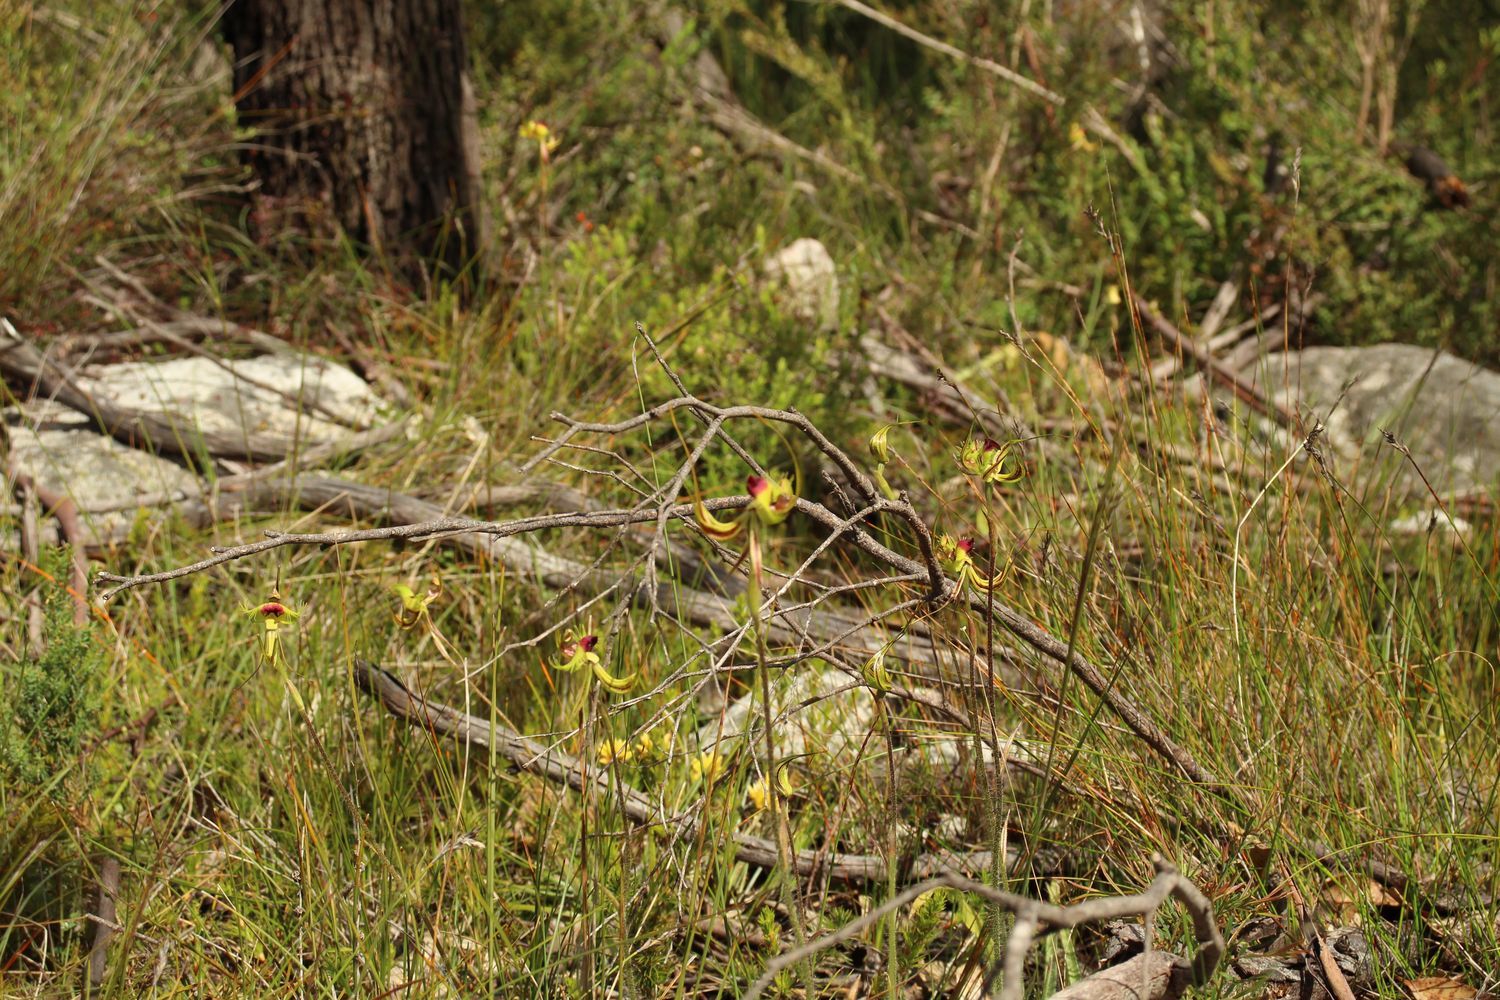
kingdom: Plantae
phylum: Tracheophyta
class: Liliopsida
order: Asparagales
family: Orchidaceae
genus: Caladenia
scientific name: Caladenia lobata
